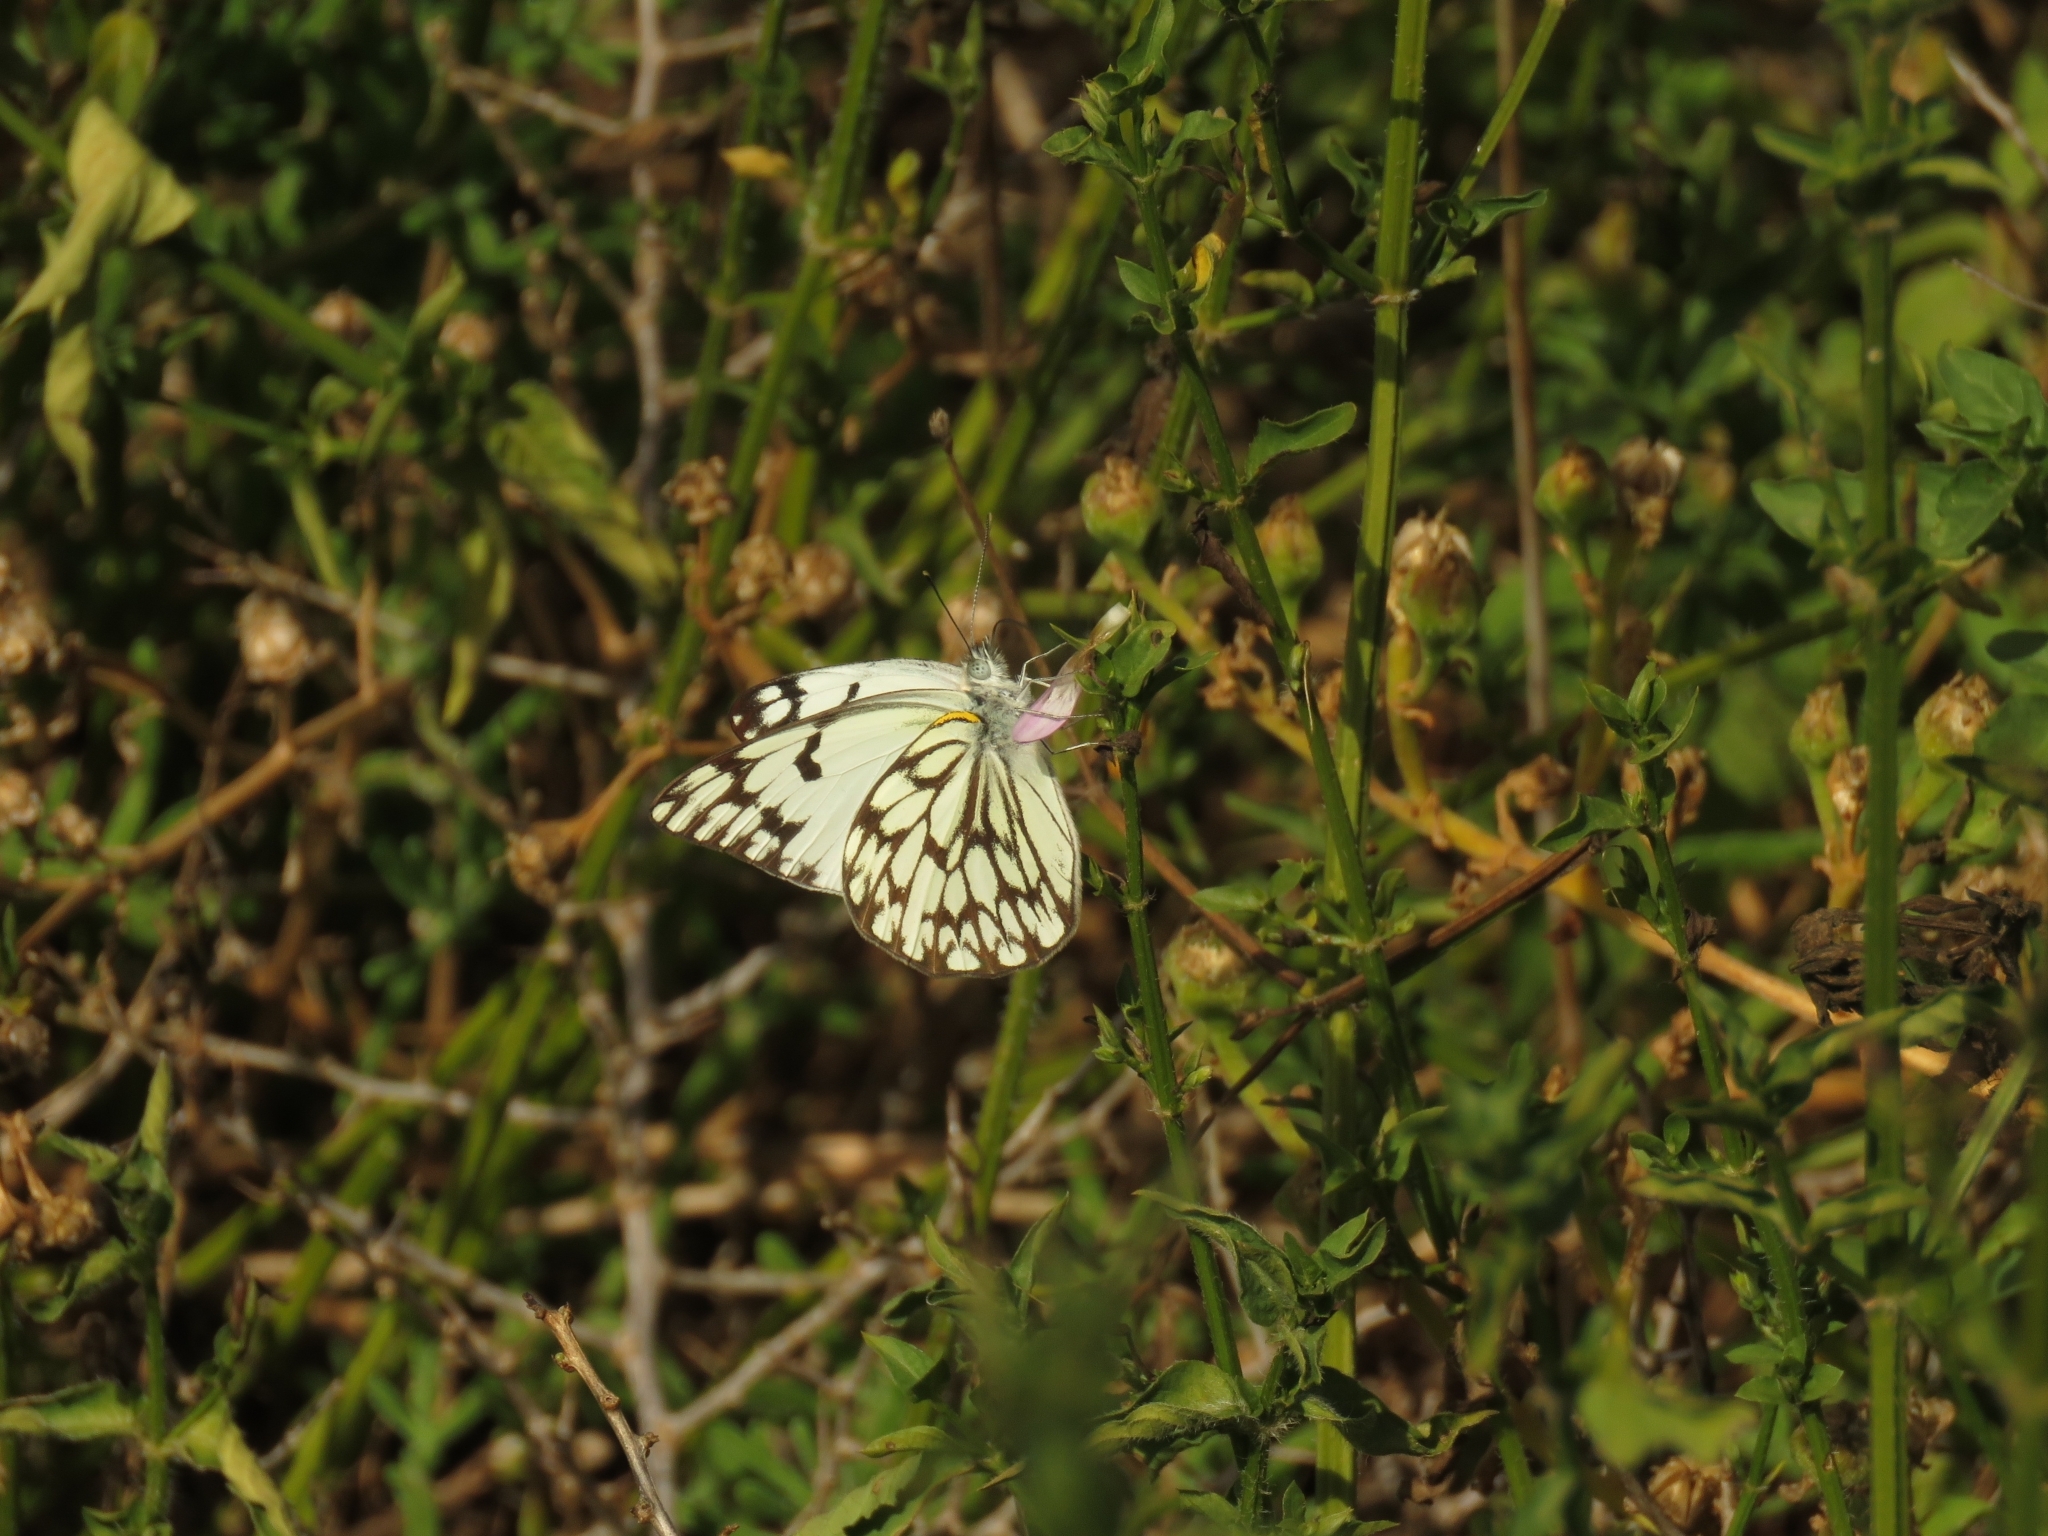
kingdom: Animalia
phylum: Arthropoda
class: Insecta
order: Lepidoptera
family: Pieridae
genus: Belenois
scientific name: Belenois gidica
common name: Pointed caper white
